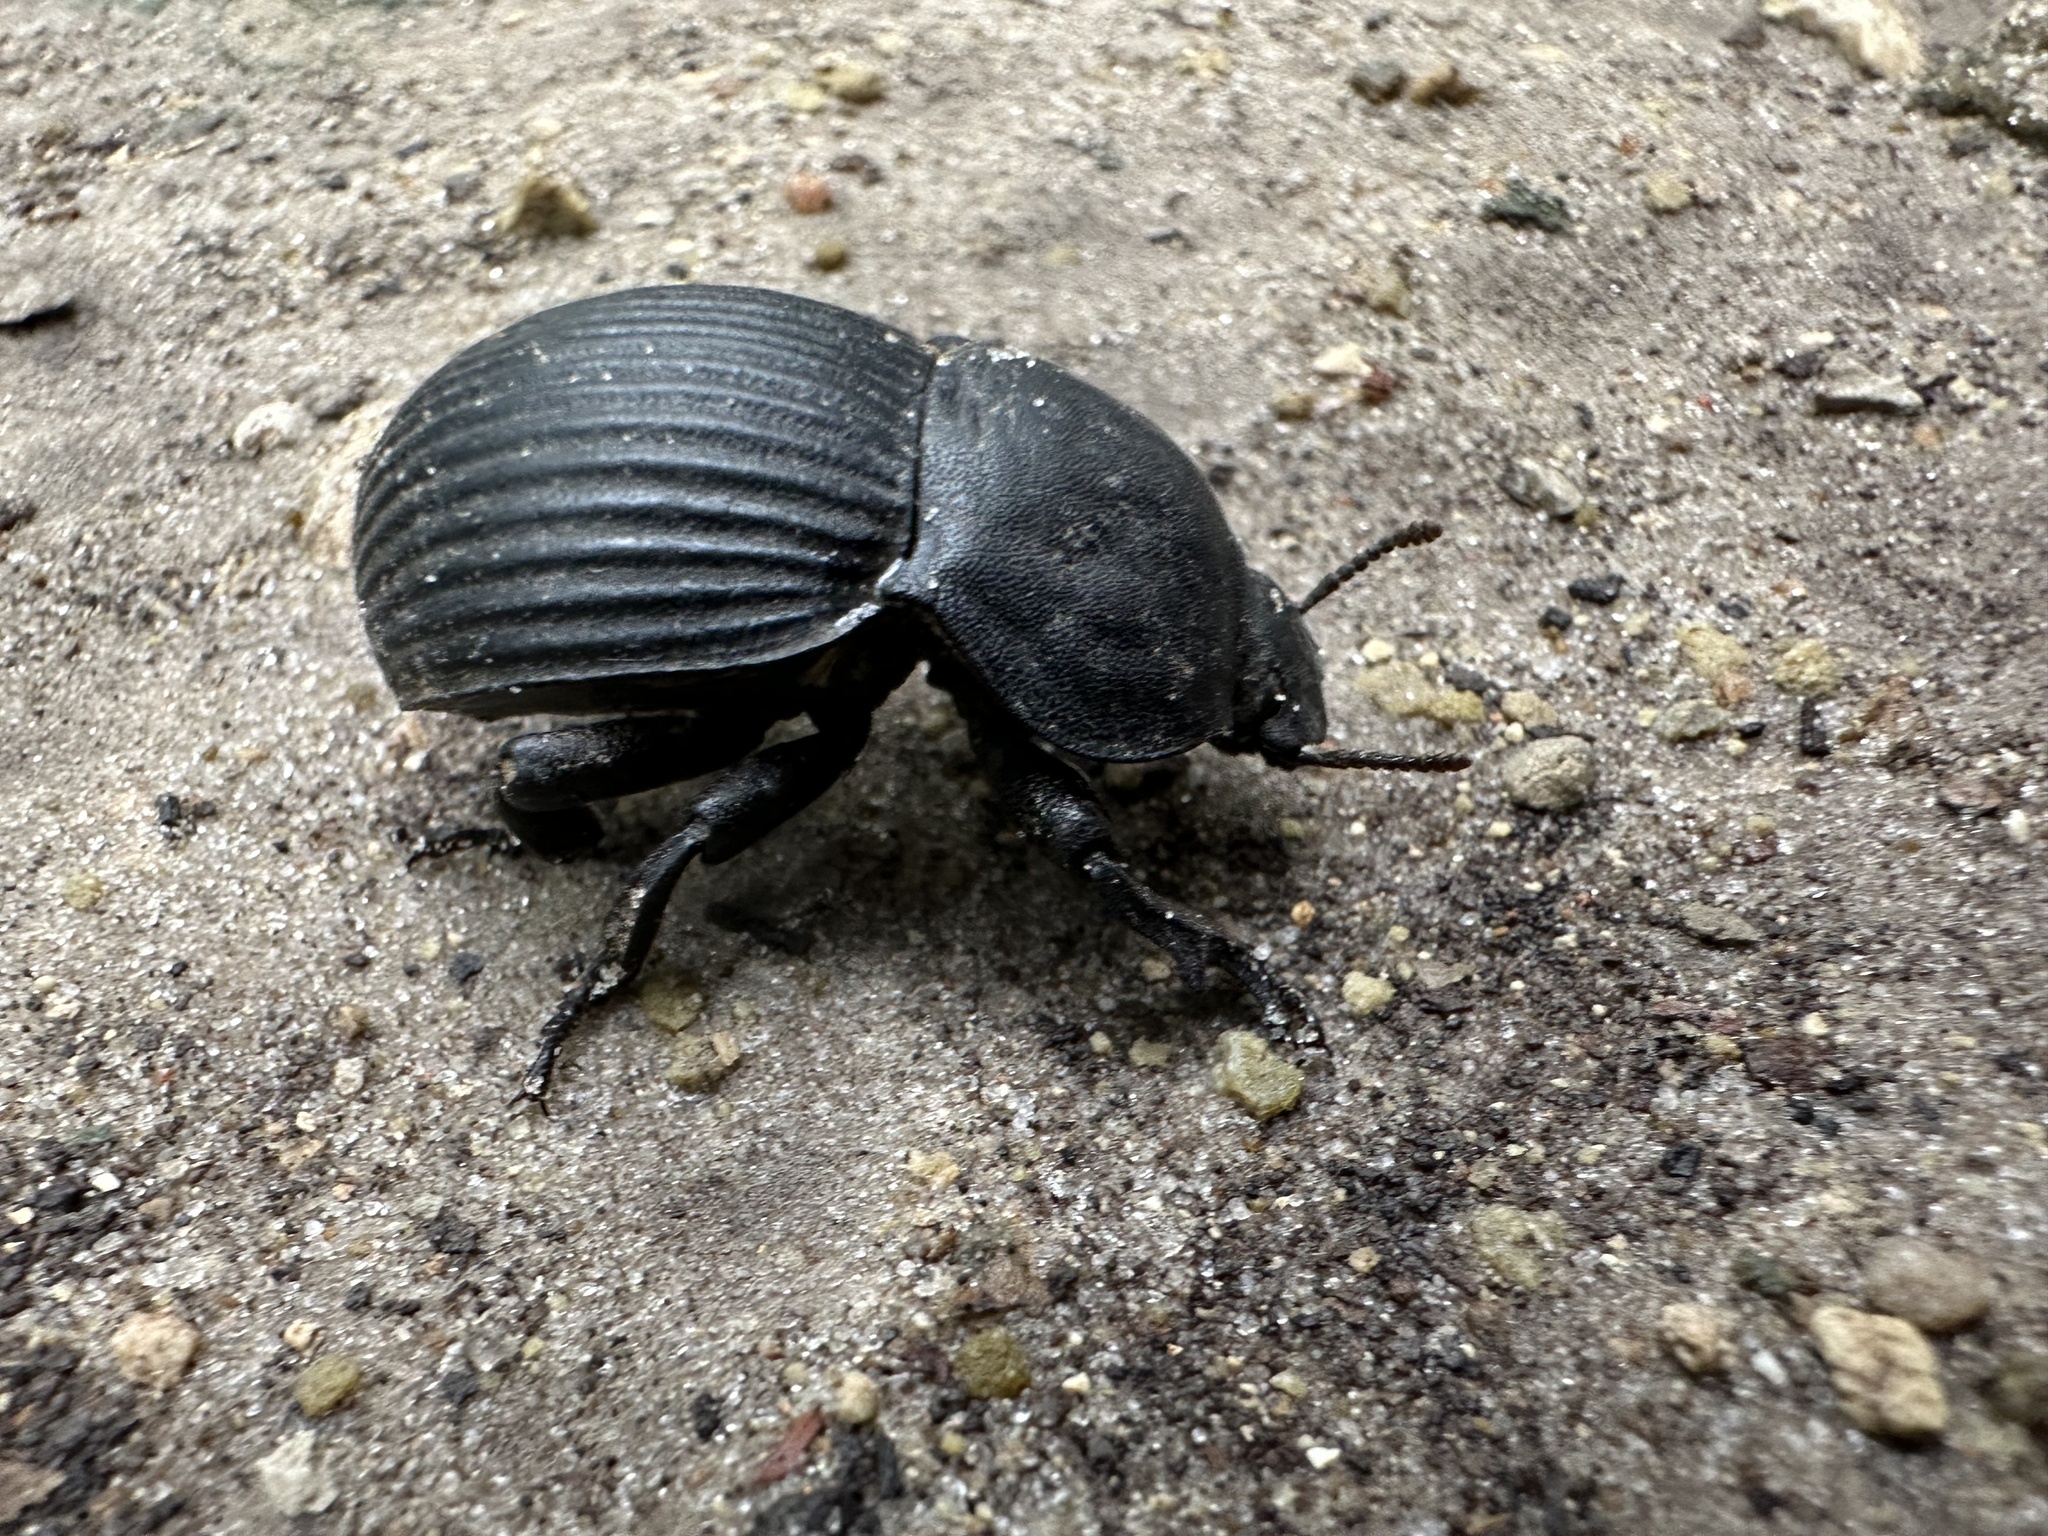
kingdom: Animalia
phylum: Arthropoda
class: Insecta
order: Coleoptera
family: Tenebrionidae
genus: Anomalipus
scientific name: Anomalipus
